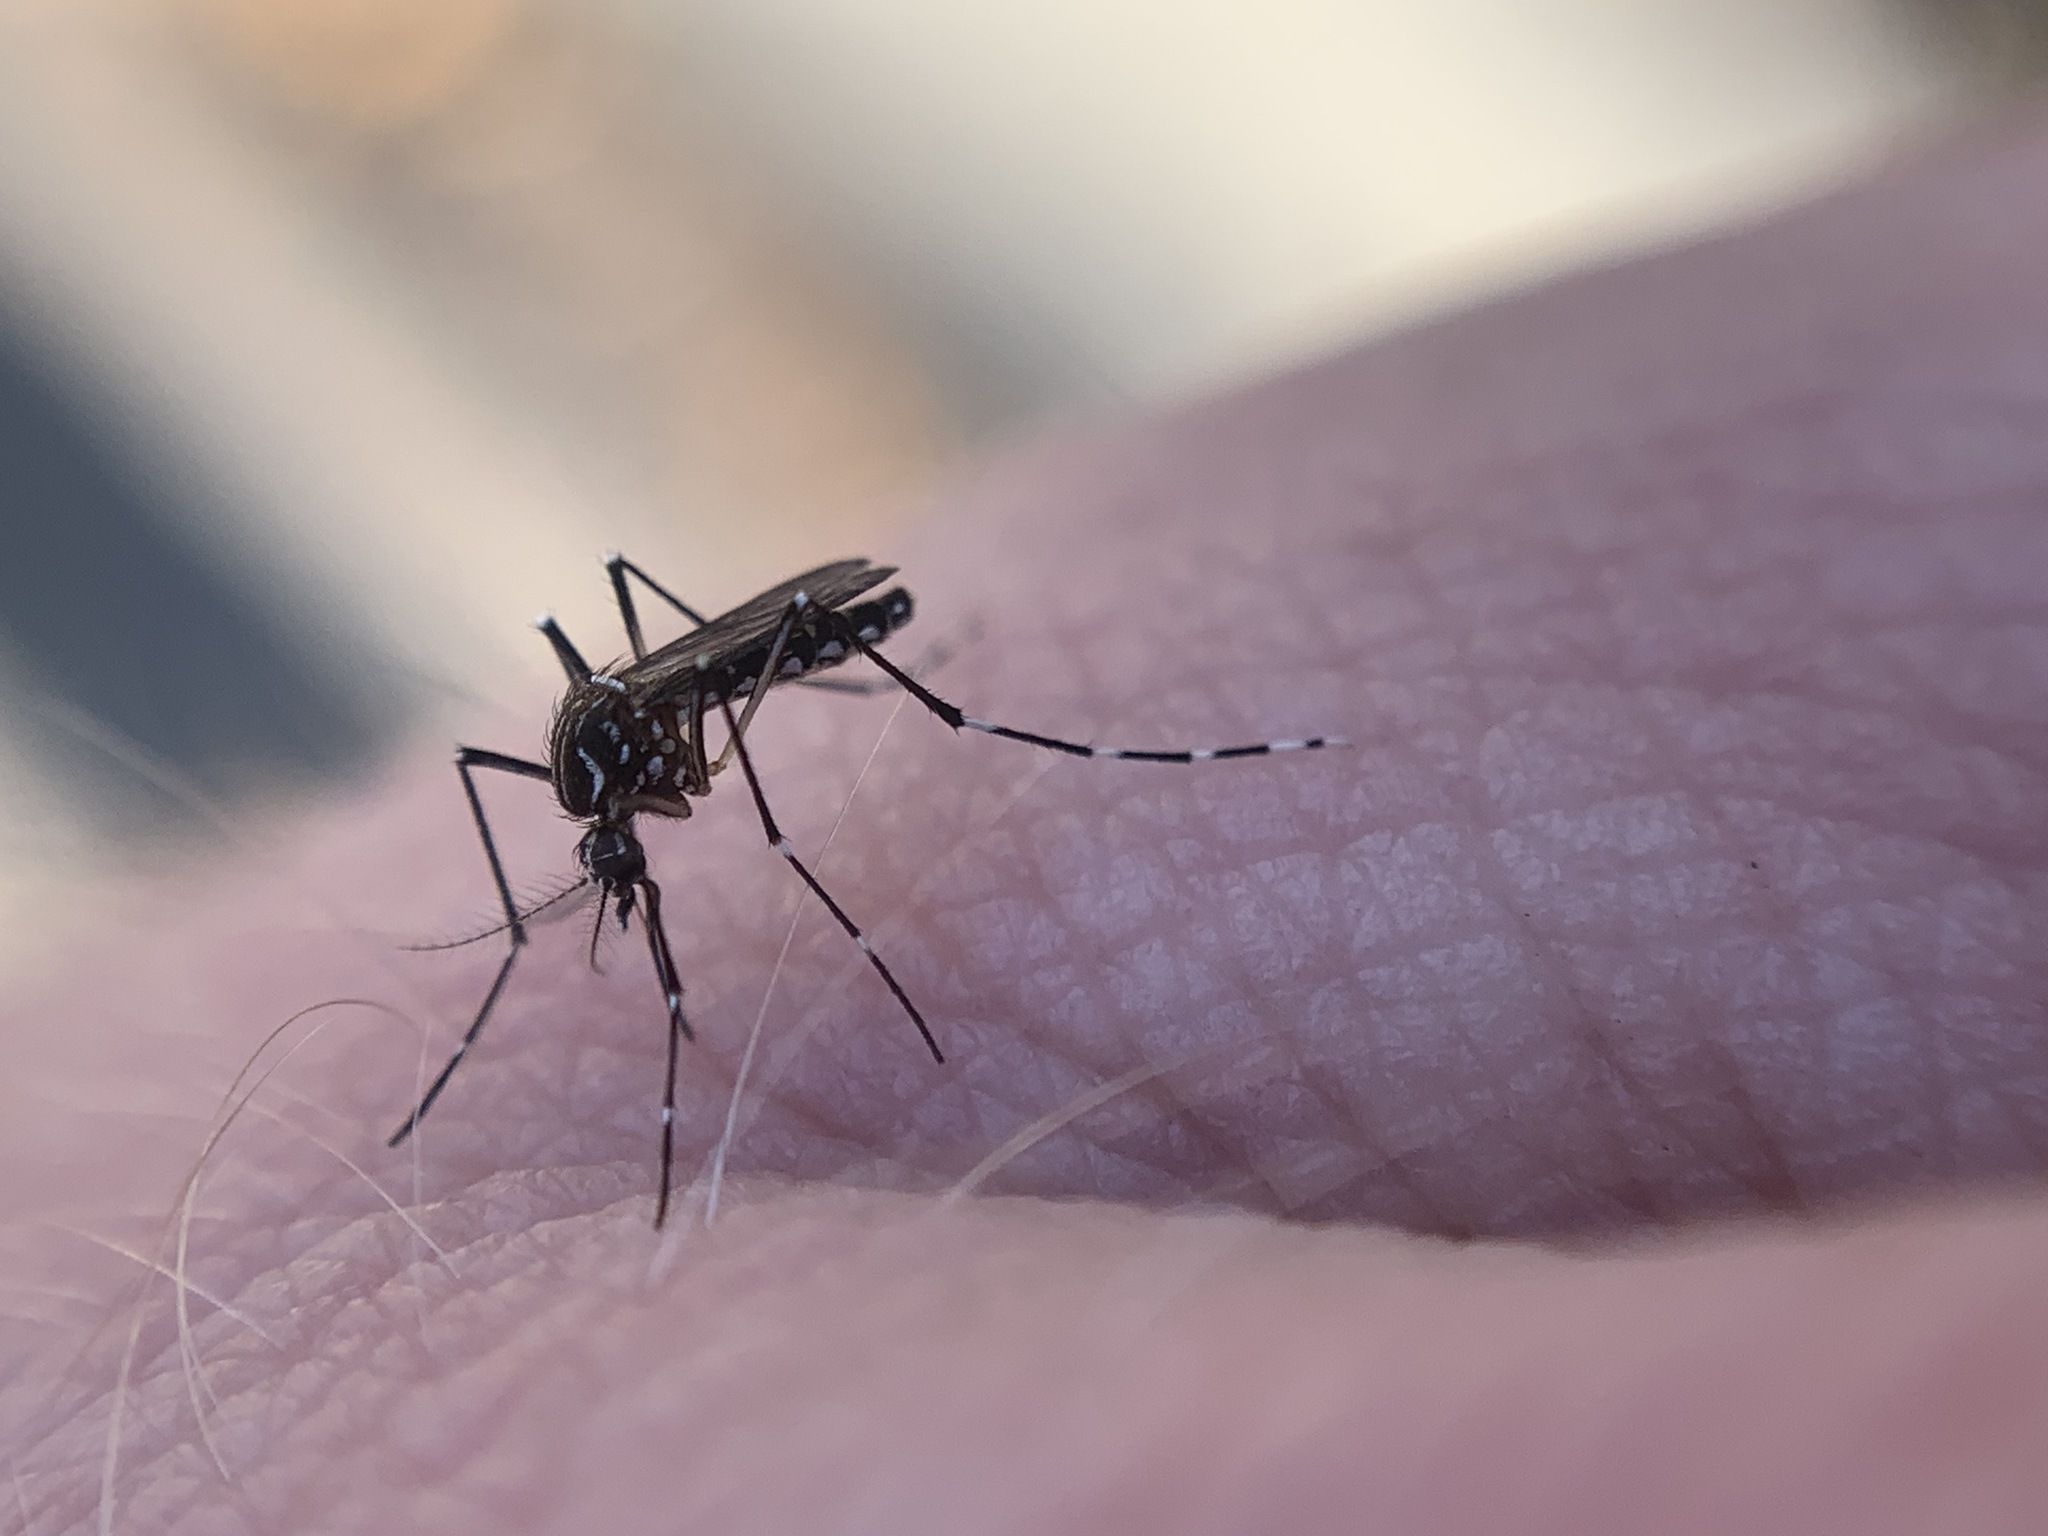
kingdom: Animalia
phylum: Arthropoda
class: Insecta
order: Diptera
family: Culicidae
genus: Aedes
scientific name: Aedes aegypti
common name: Yellow fever mosquito
